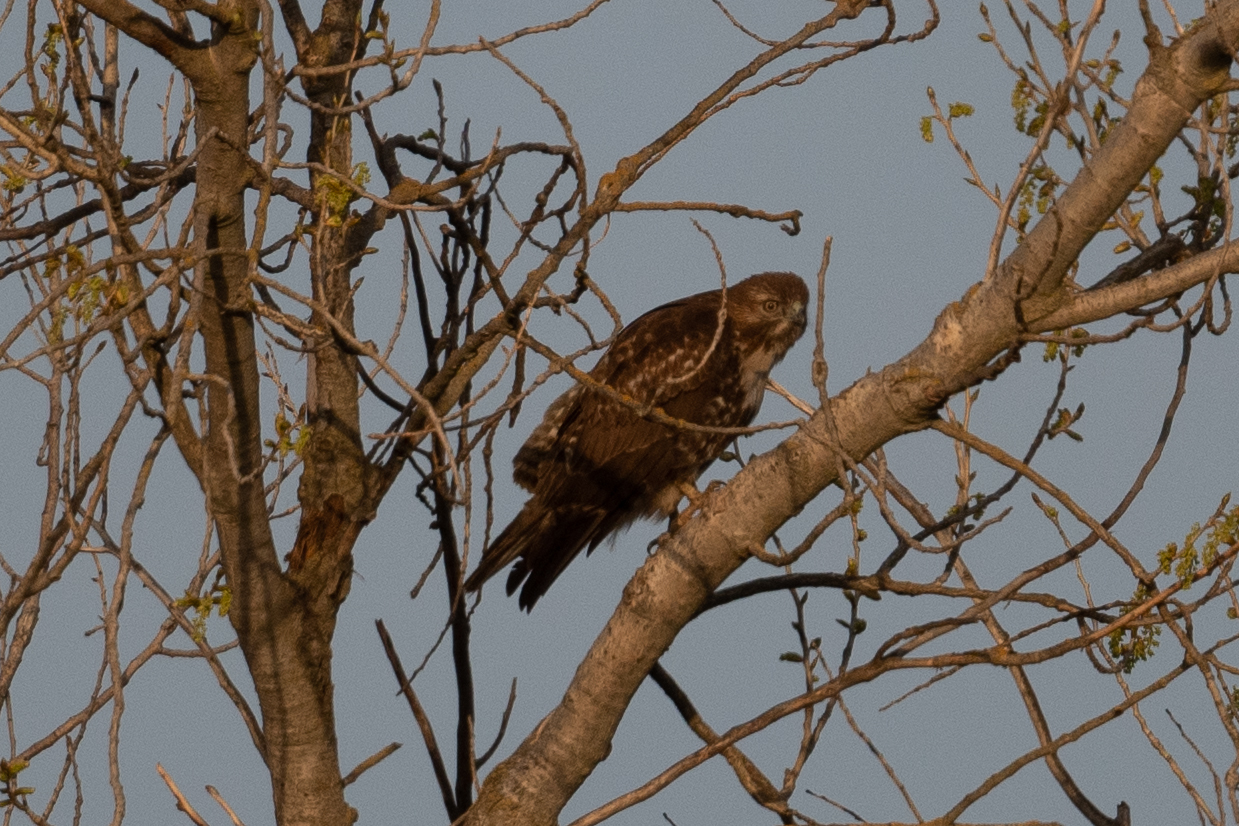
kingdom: Animalia
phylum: Chordata
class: Aves
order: Accipitriformes
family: Accipitridae
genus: Buteo
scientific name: Buteo jamaicensis
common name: Red-tailed hawk
